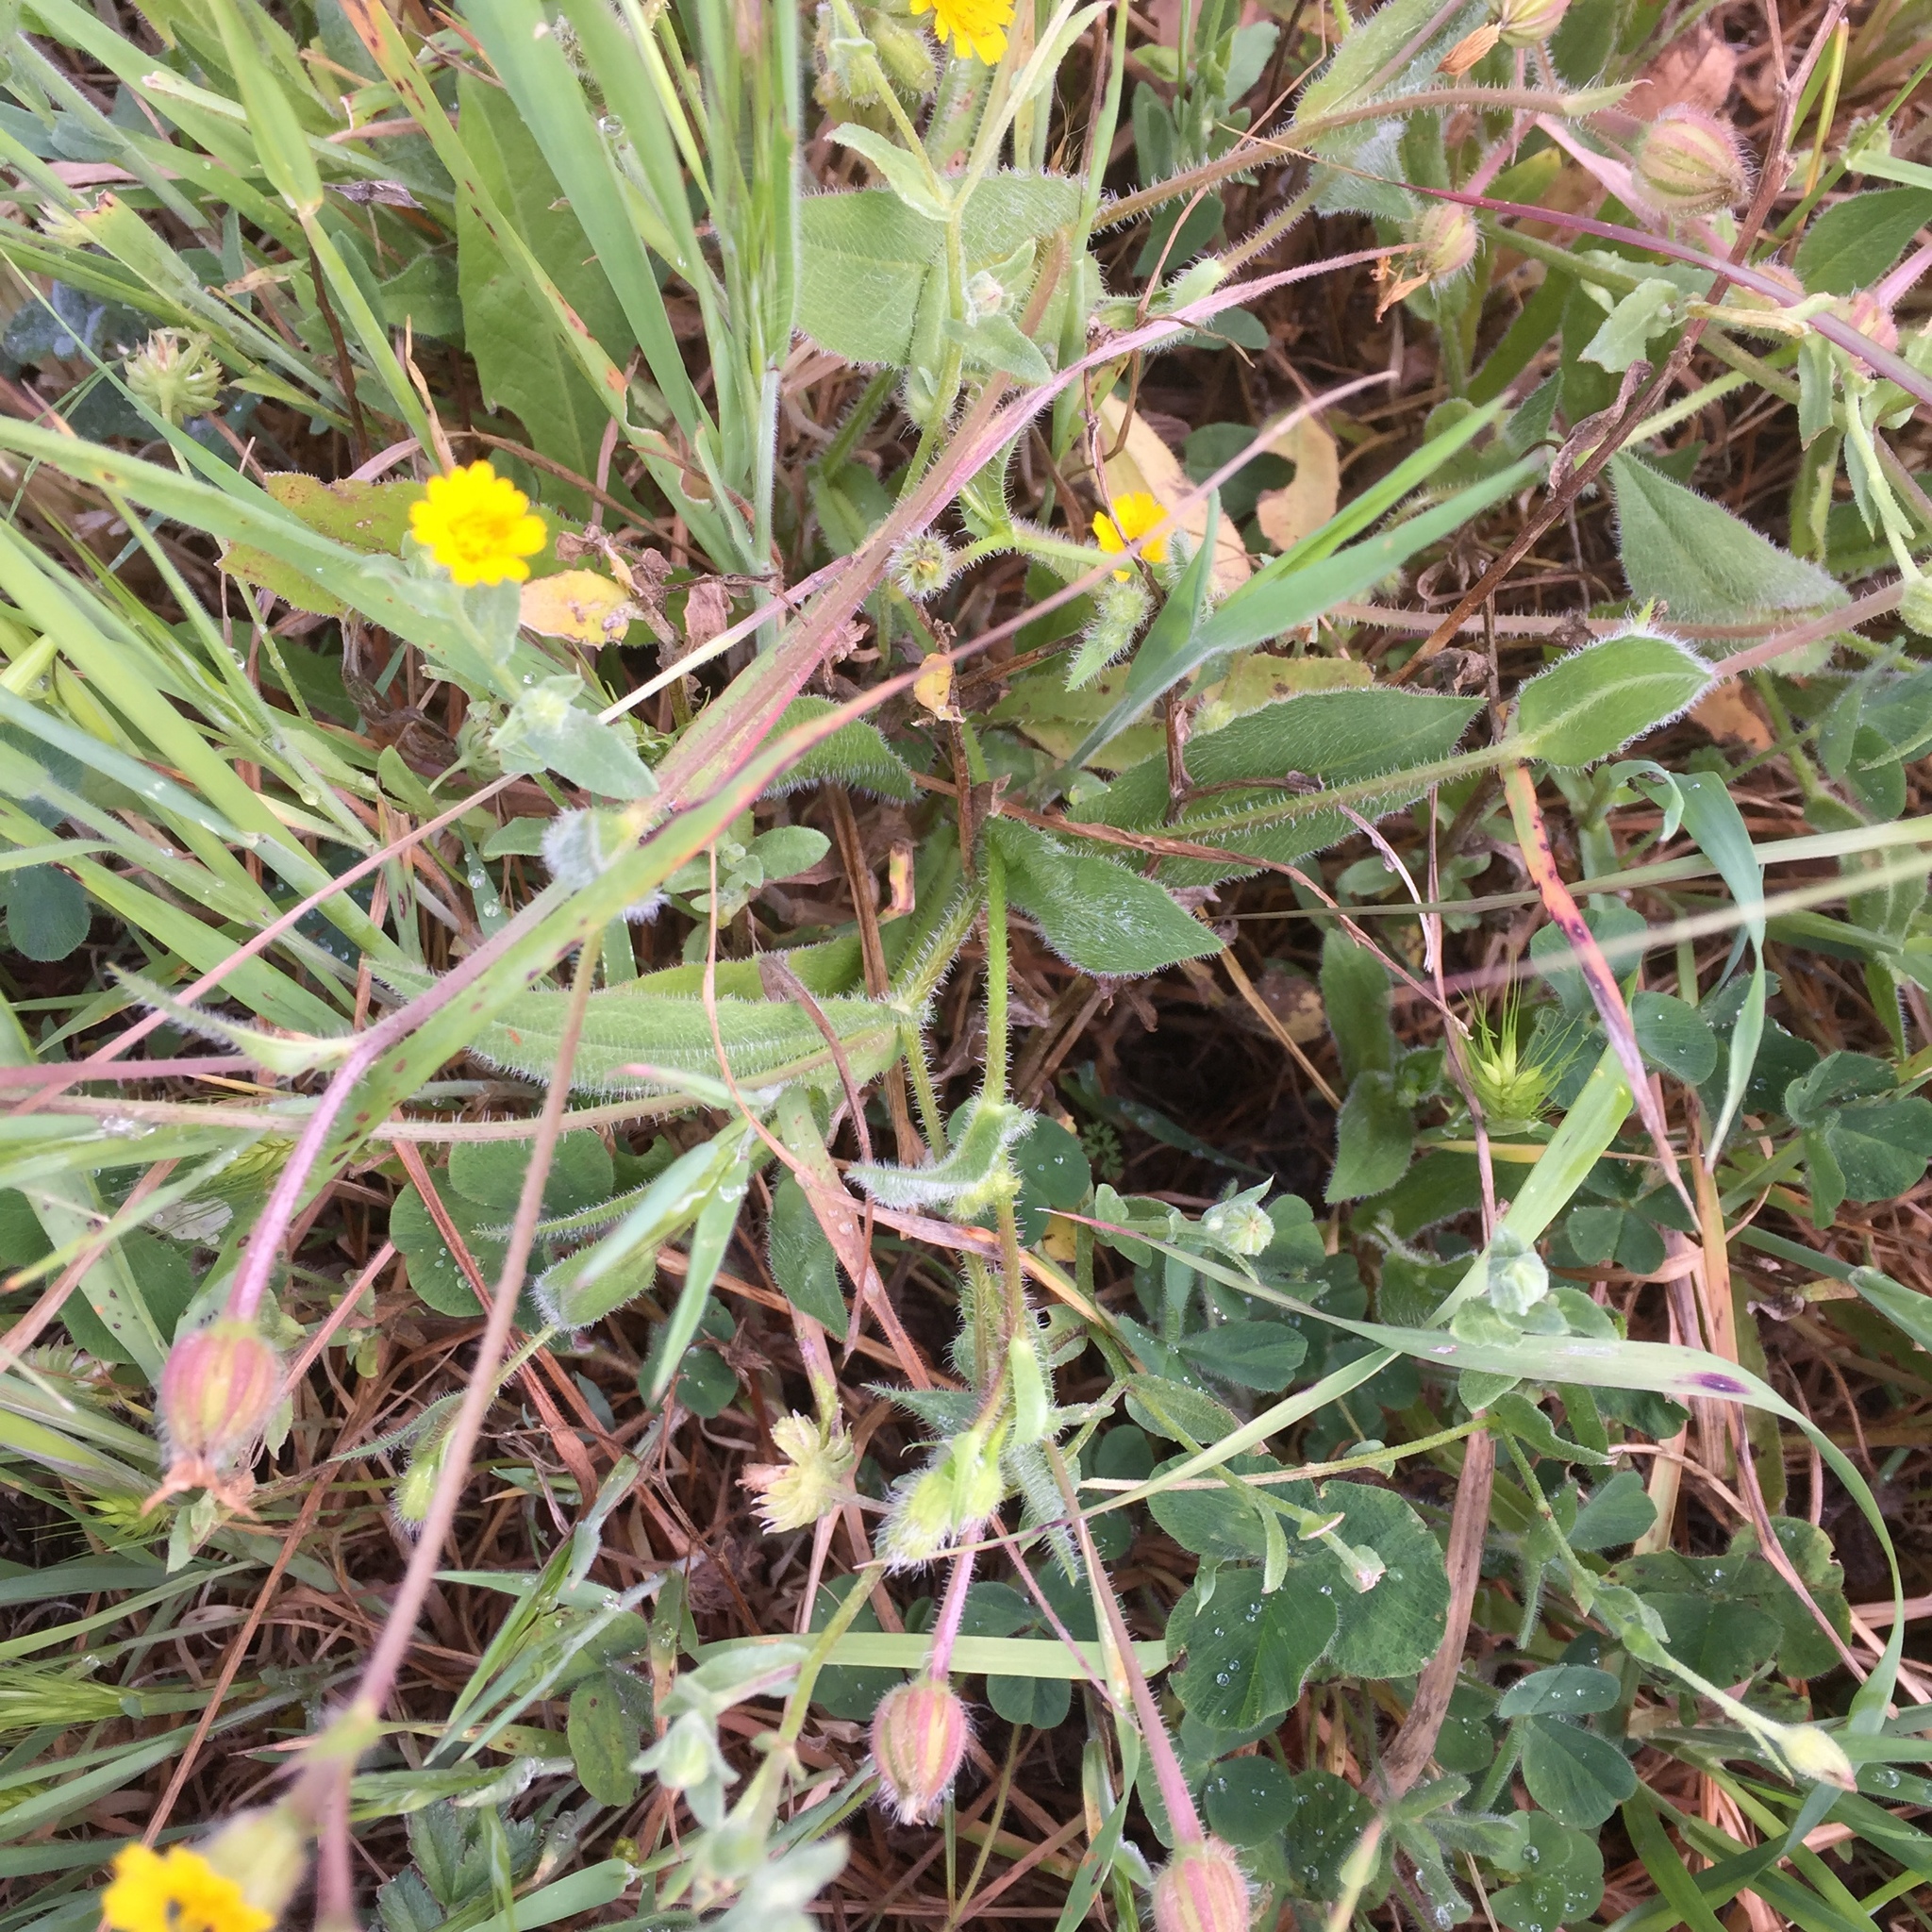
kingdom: Plantae
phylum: Tracheophyta
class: Magnoliopsida
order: Asterales
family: Asteraceae
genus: Calendula
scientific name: Calendula arvensis
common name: Field marigold
